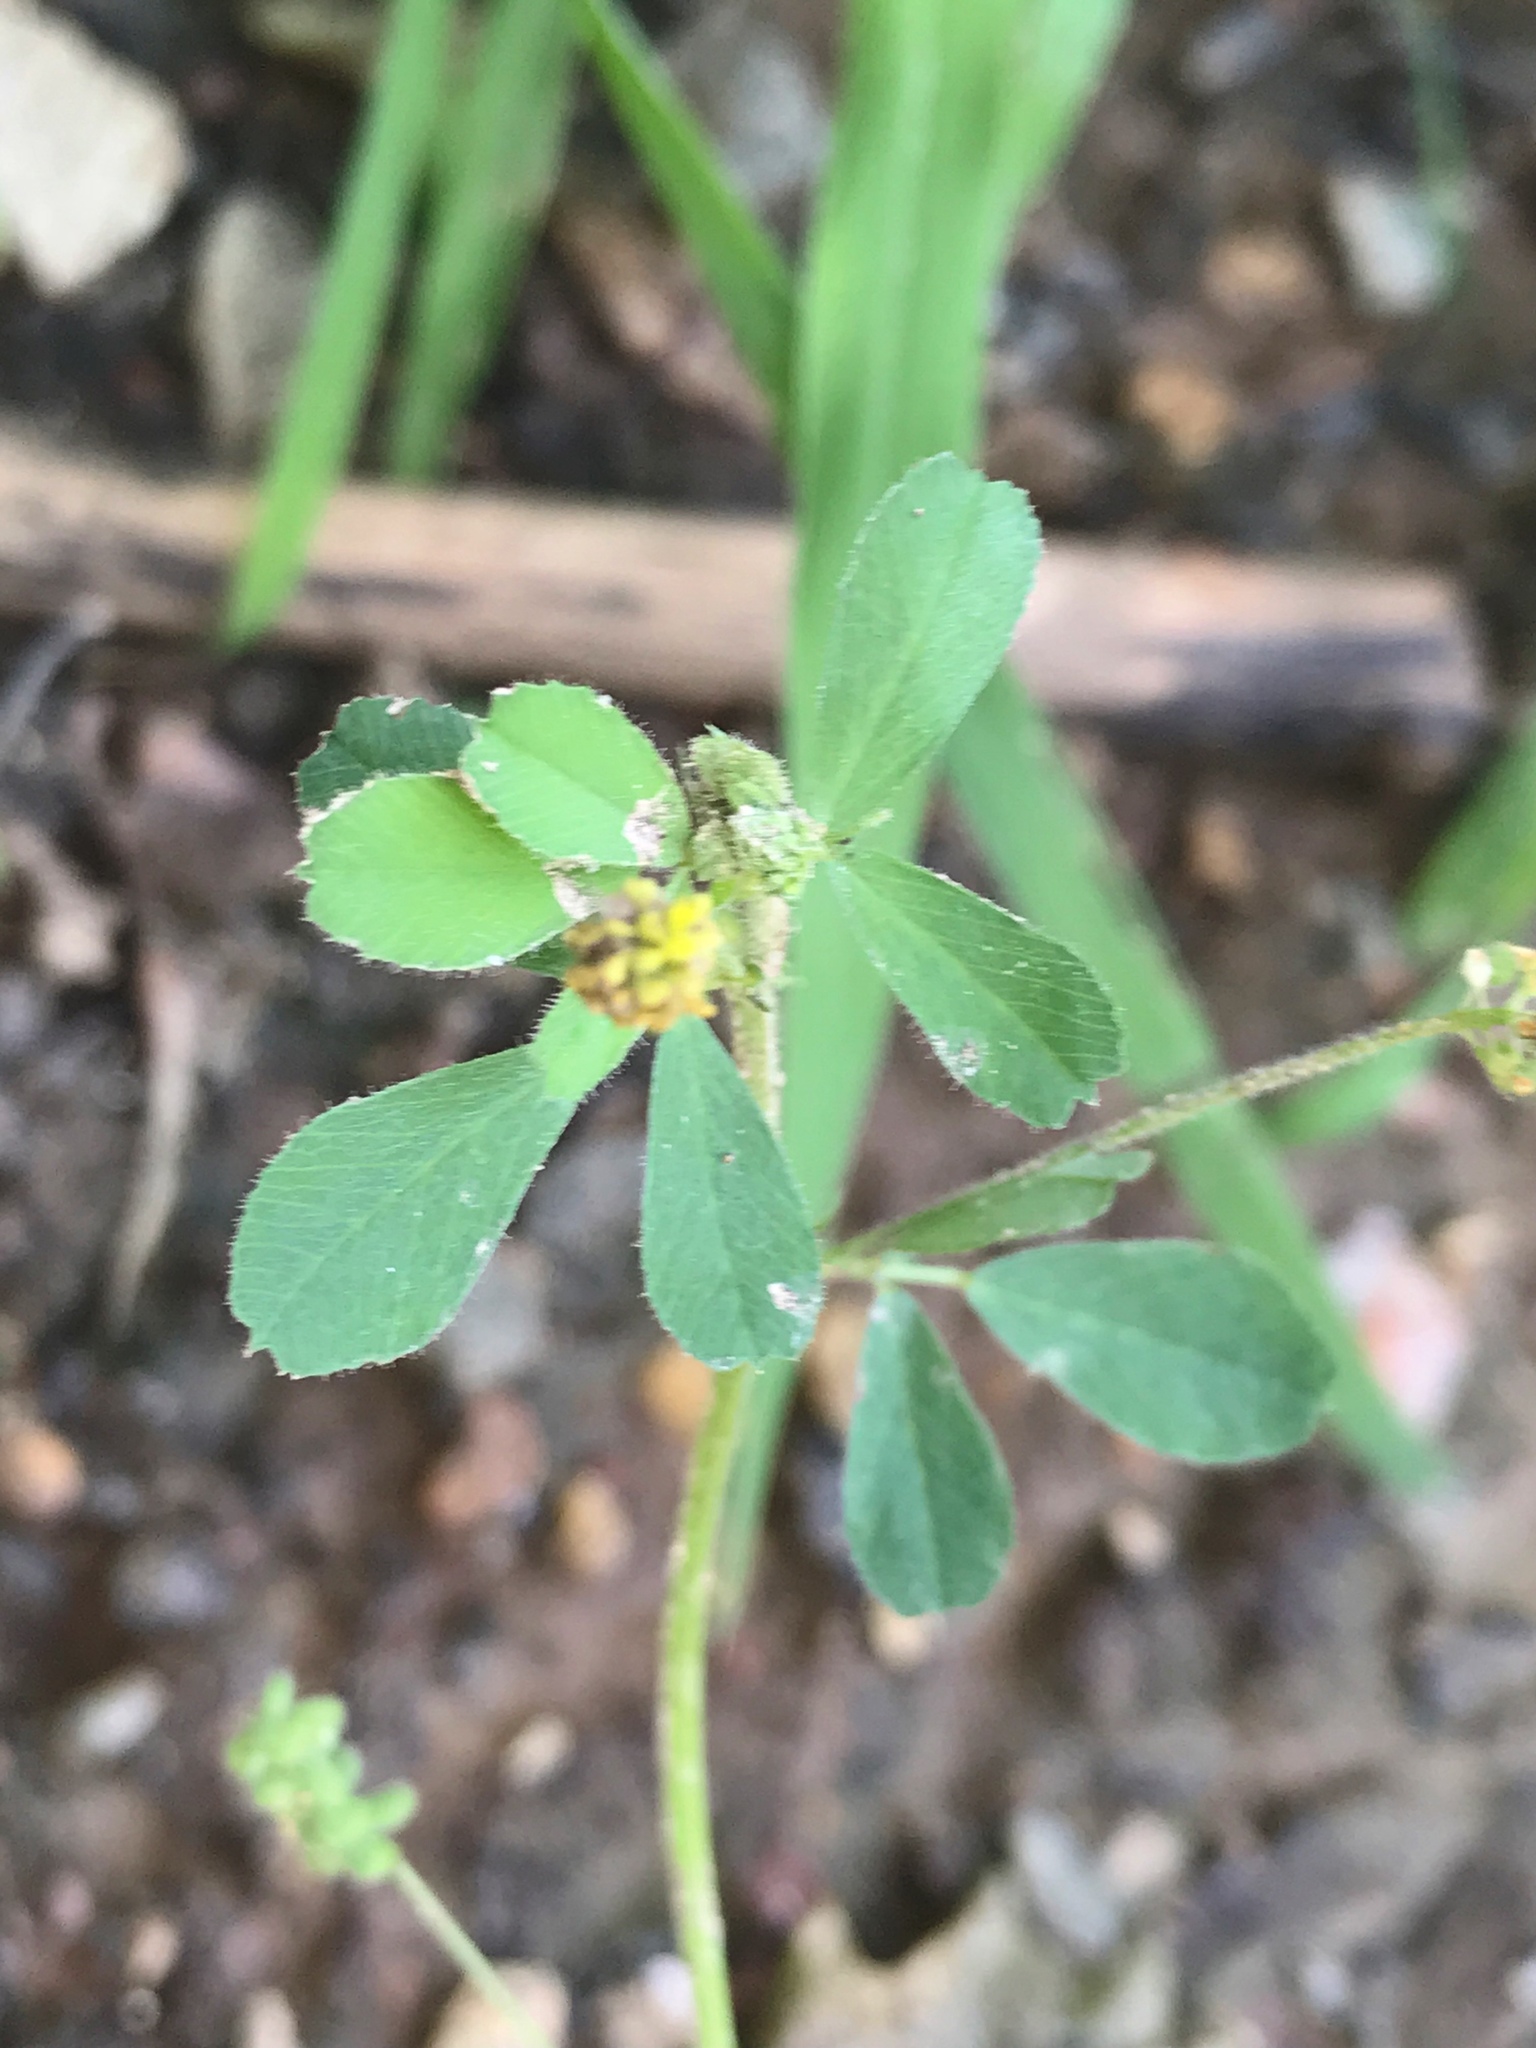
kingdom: Plantae
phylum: Tracheophyta
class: Magnoliopsida
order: Fabales
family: Fabaceae
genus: Medicago
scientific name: Medicago lupulina
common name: Black medick
